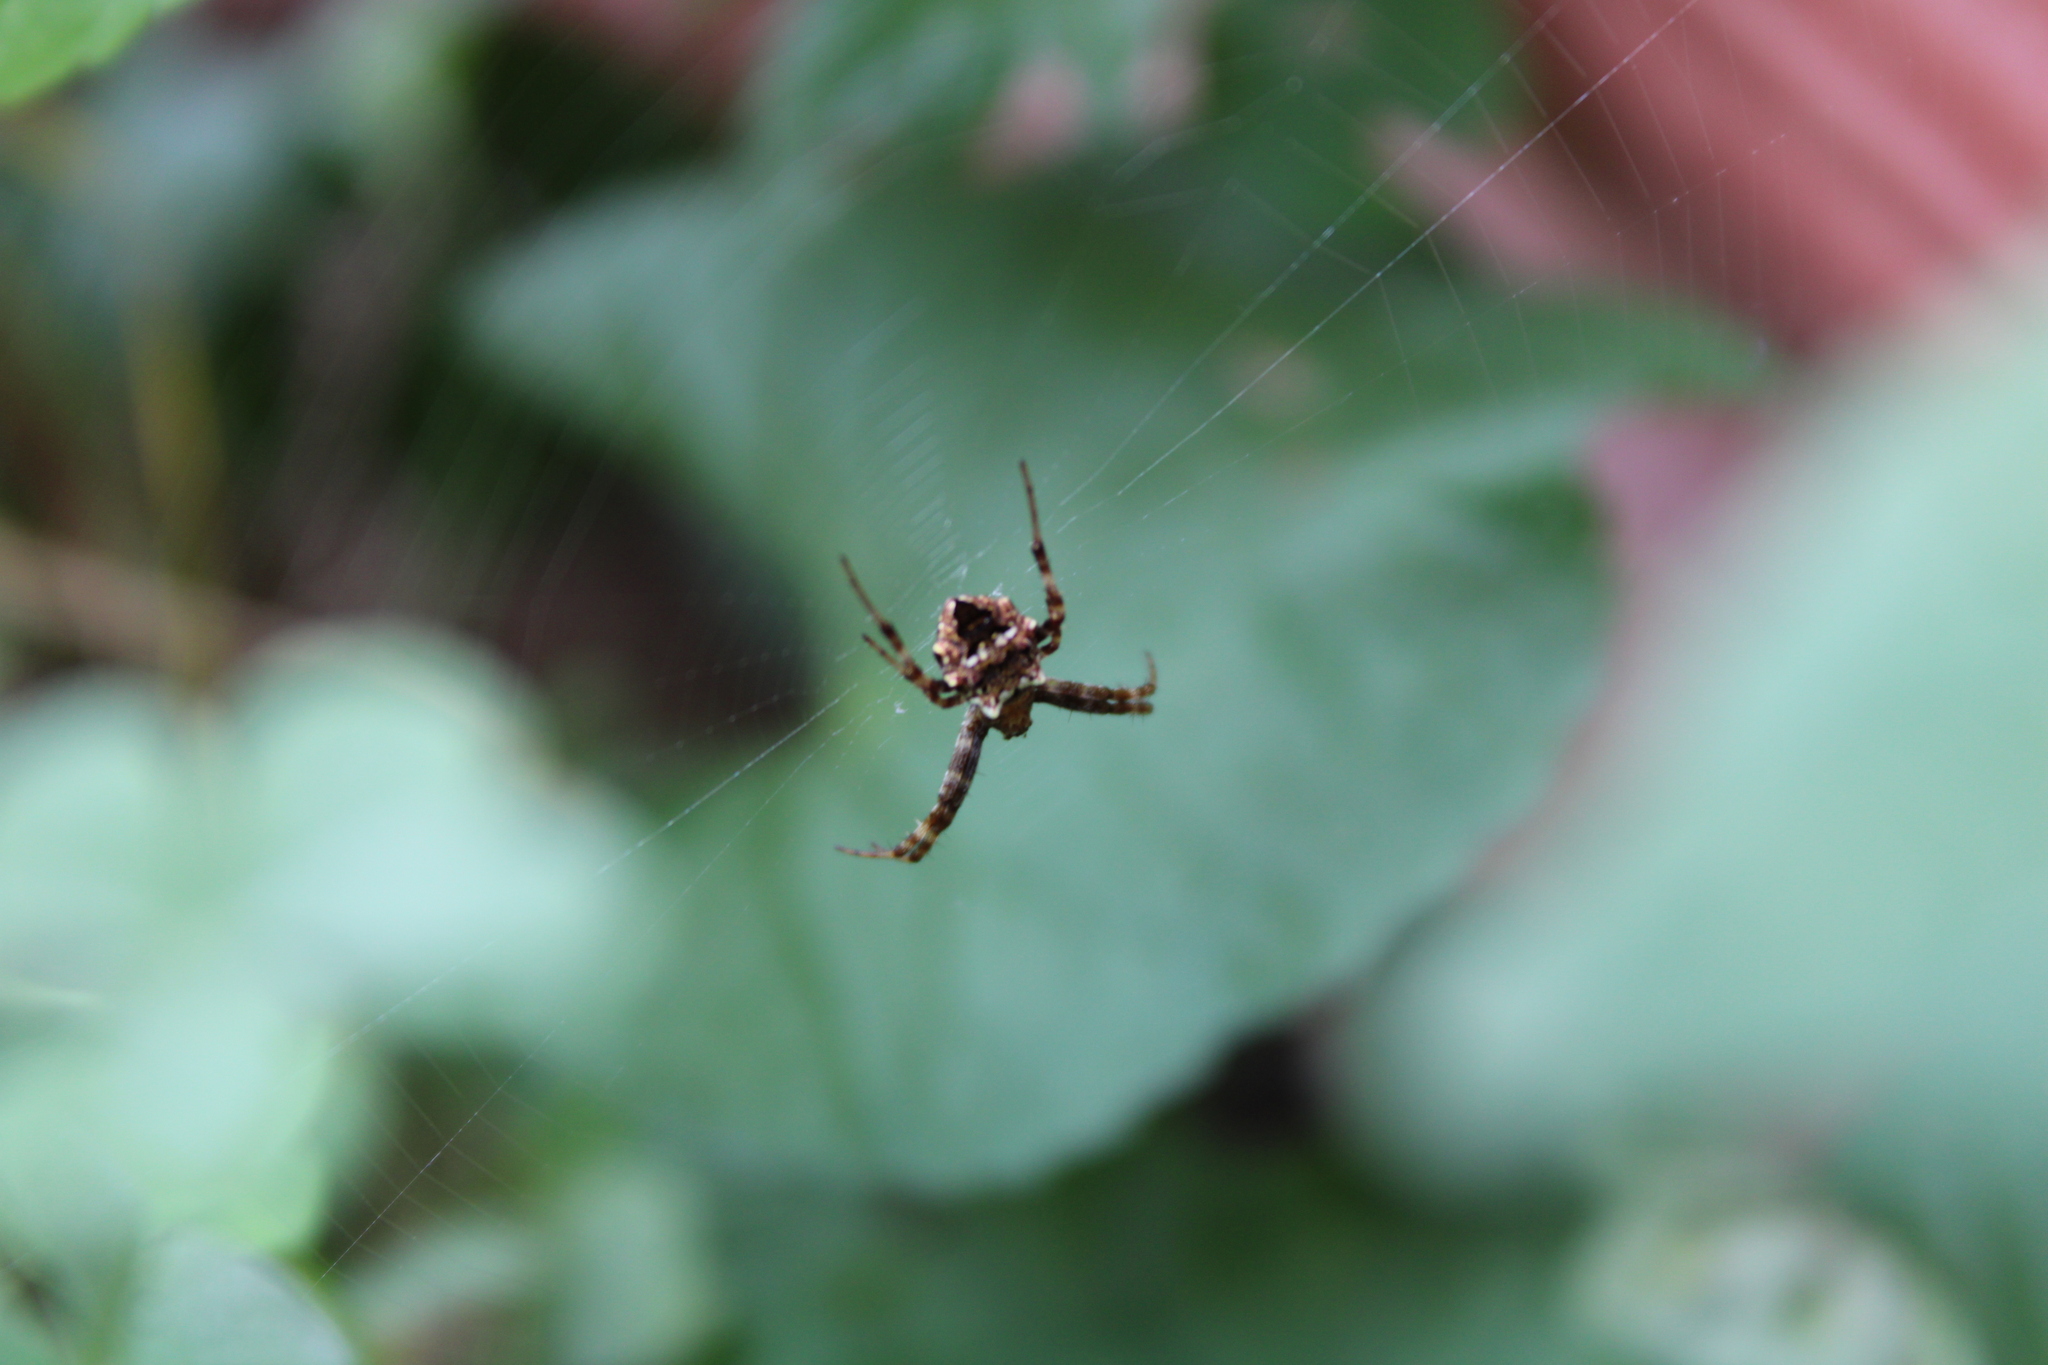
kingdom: Animalia
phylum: Arthropoda
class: Arachnida
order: Araneae
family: Araneidae
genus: Gea
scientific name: Gea heptagon
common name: Orb weavers
